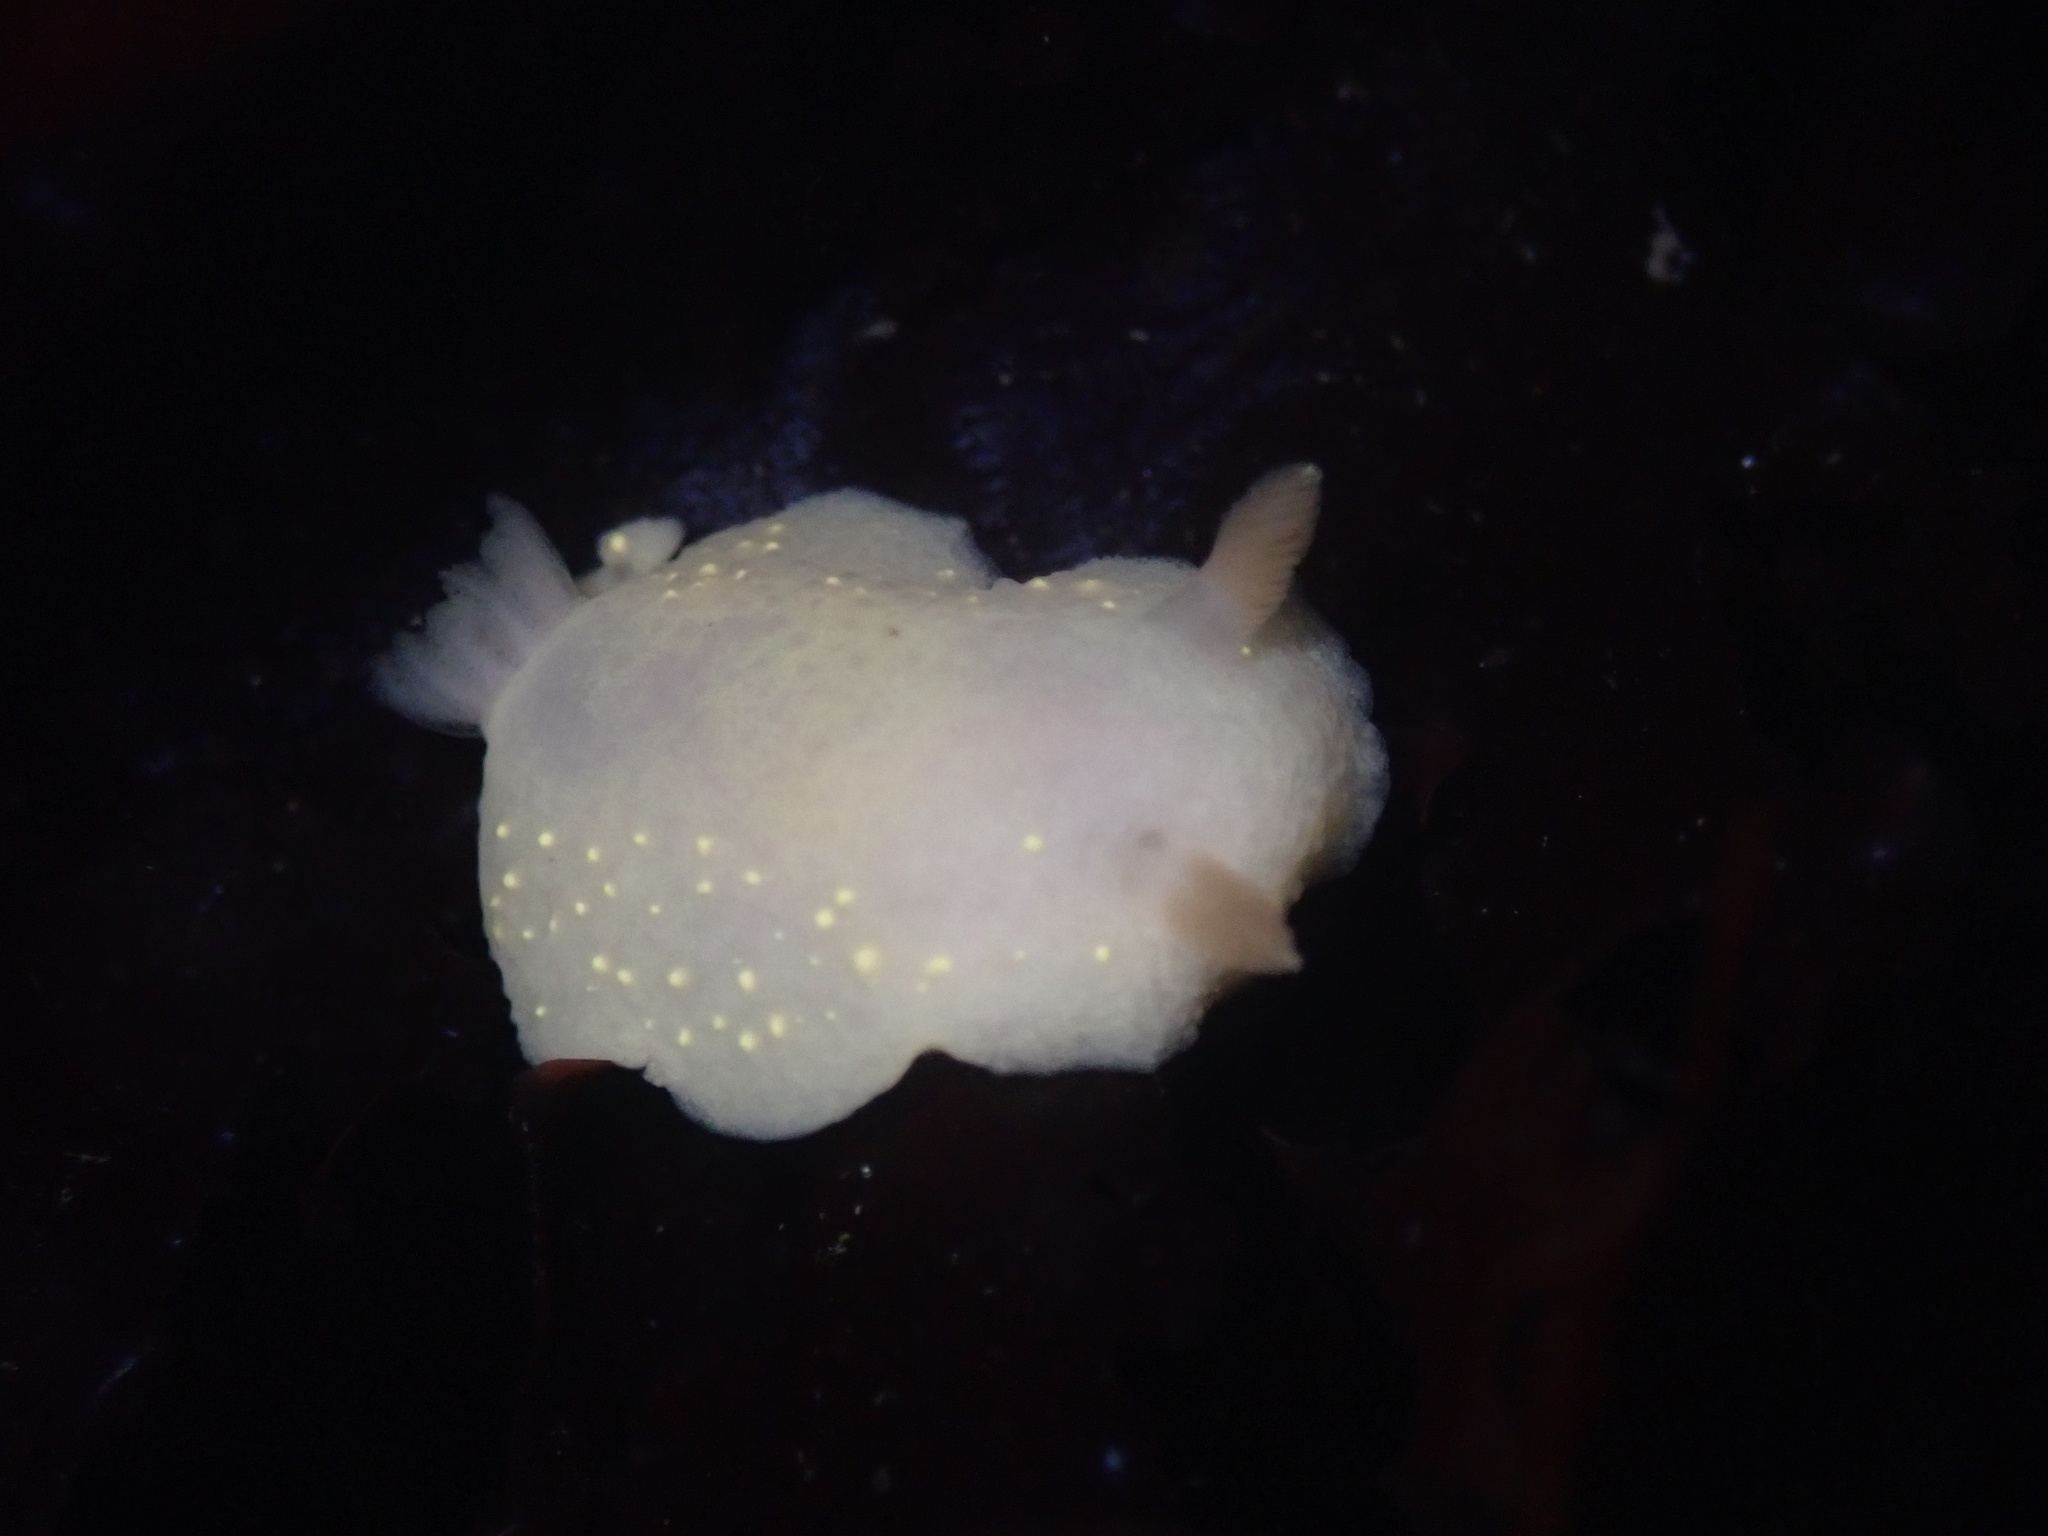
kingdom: Animalia
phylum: Mollusca
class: Gastropoda
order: Nudibranchia
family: Cadlinidae
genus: Cadlina
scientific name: Cadlina modesta
